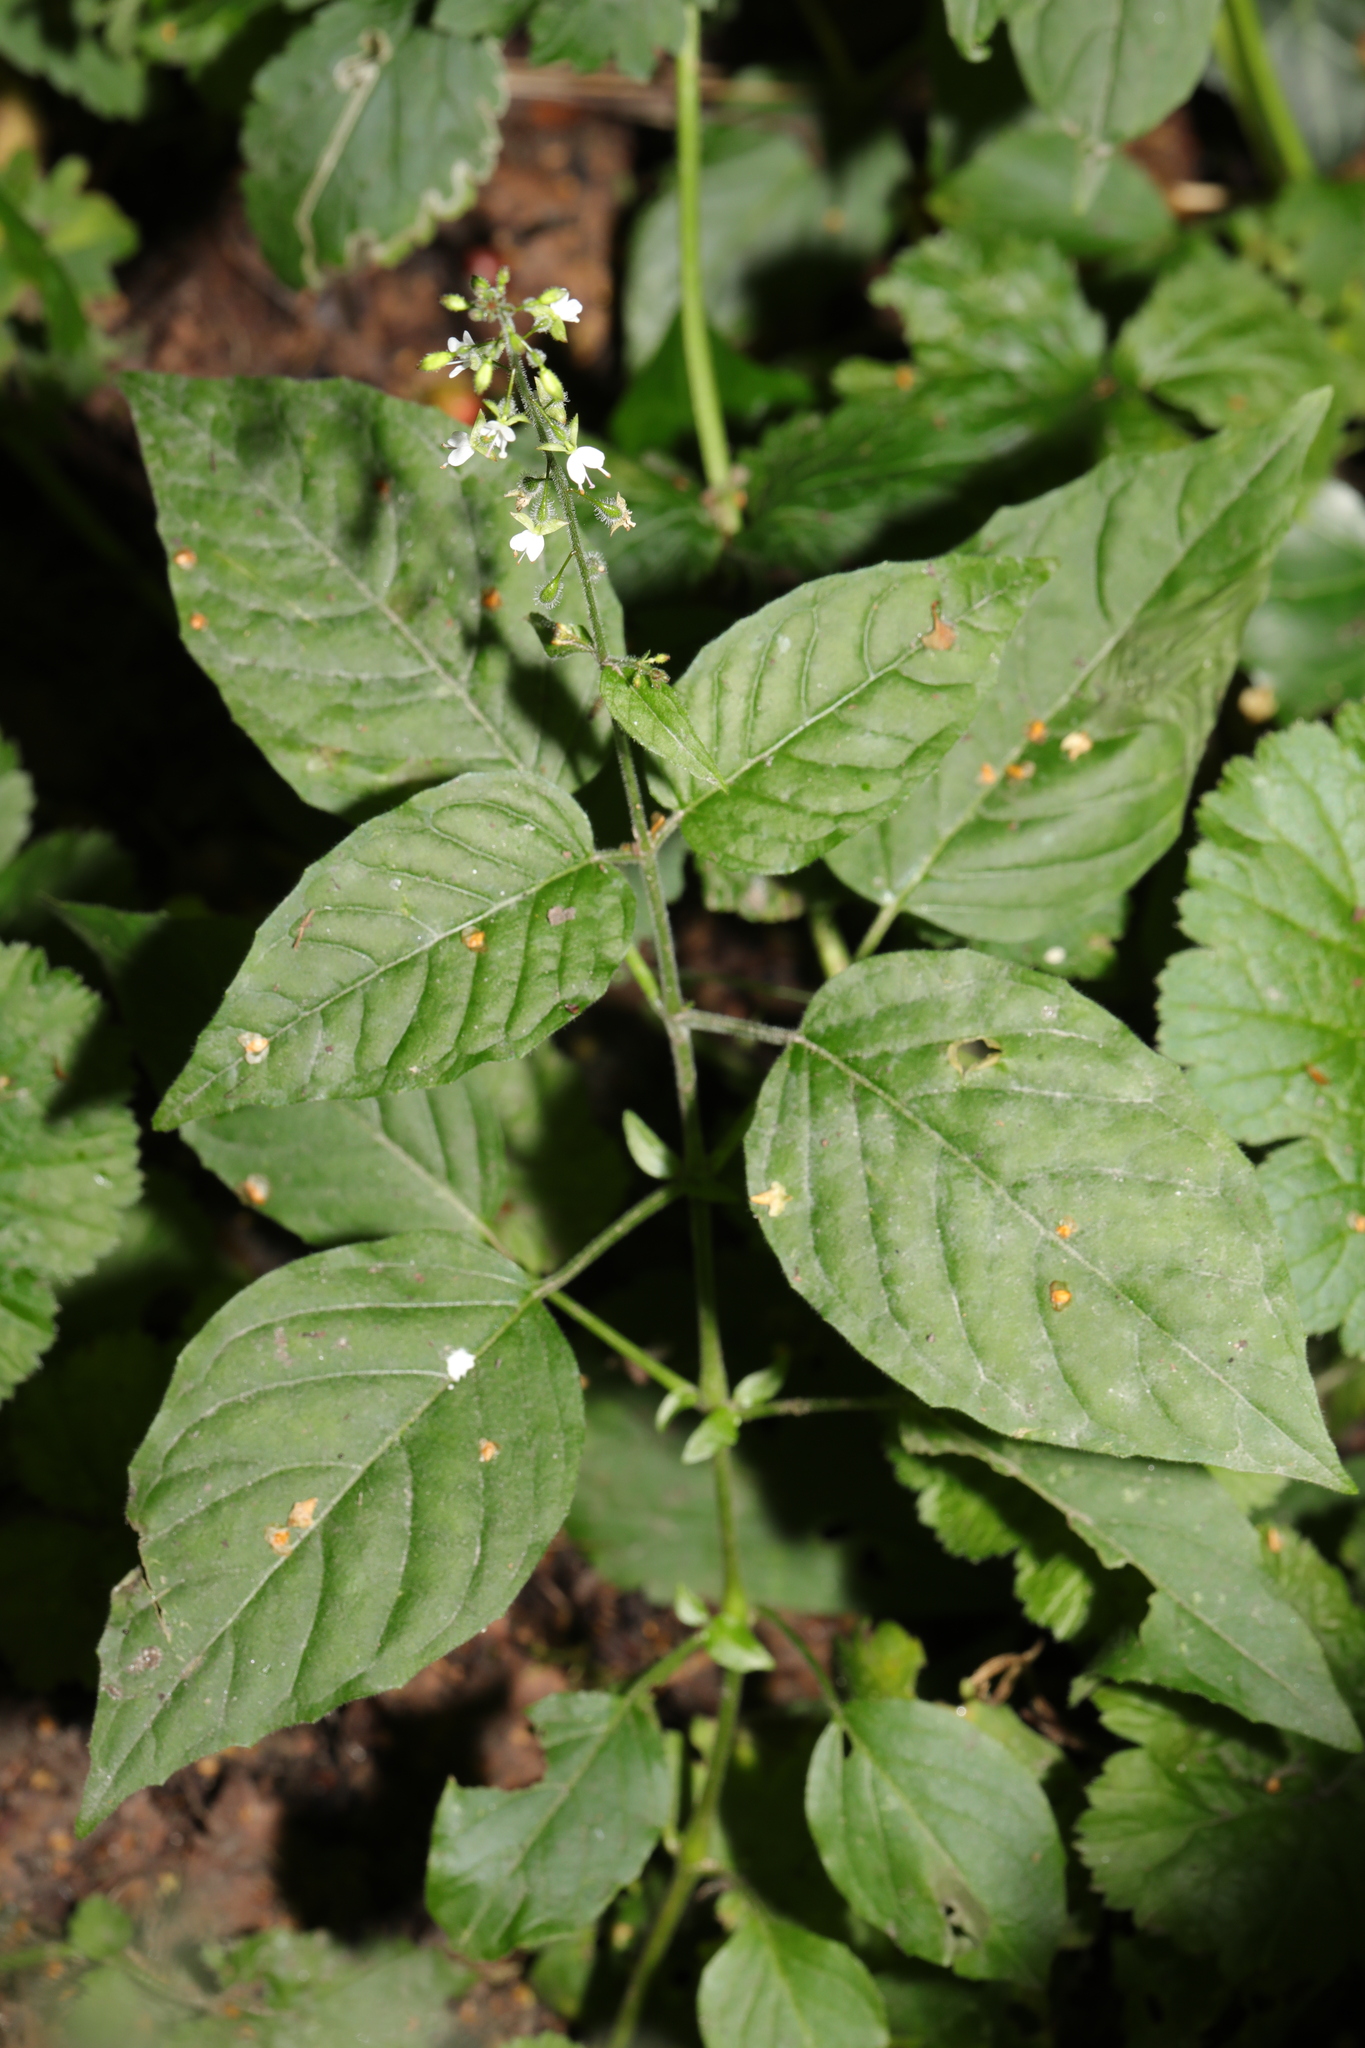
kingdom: Plantae
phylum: Tracheophyta
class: Magnoliopsida
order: Myrtales
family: Onagraceae
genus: Circaea
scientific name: Circaea lutetiana
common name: Enchanter's-nightshade
